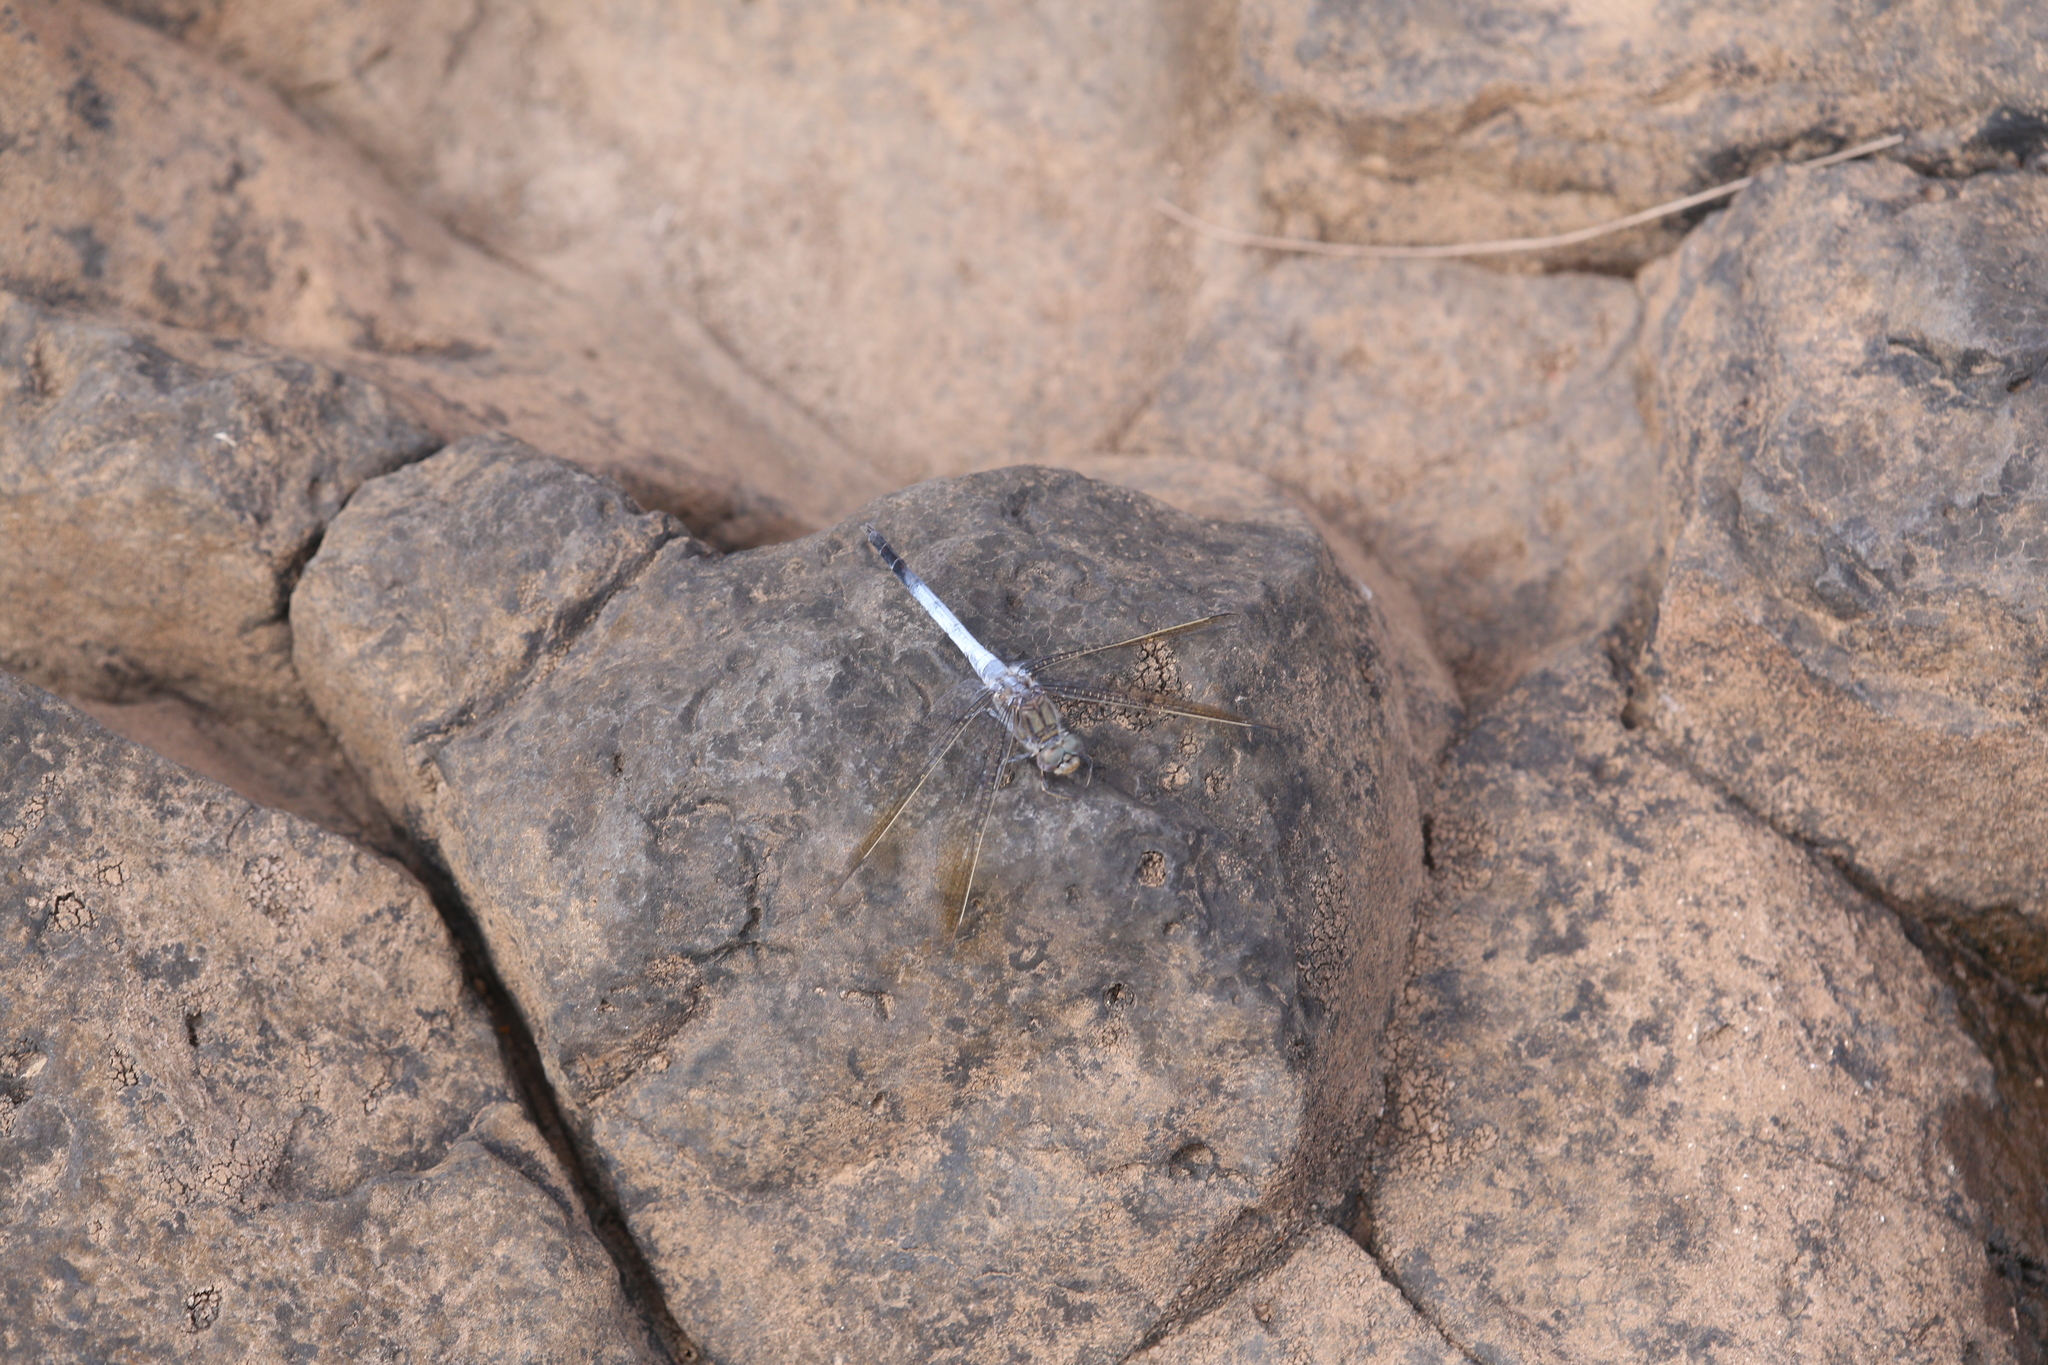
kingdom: Animalia
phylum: Arthropoda
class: Insecta
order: Odonata
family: Libellulidae
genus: Orthetrum
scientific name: Orthetrum caledonicum
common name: Blue skimmer
